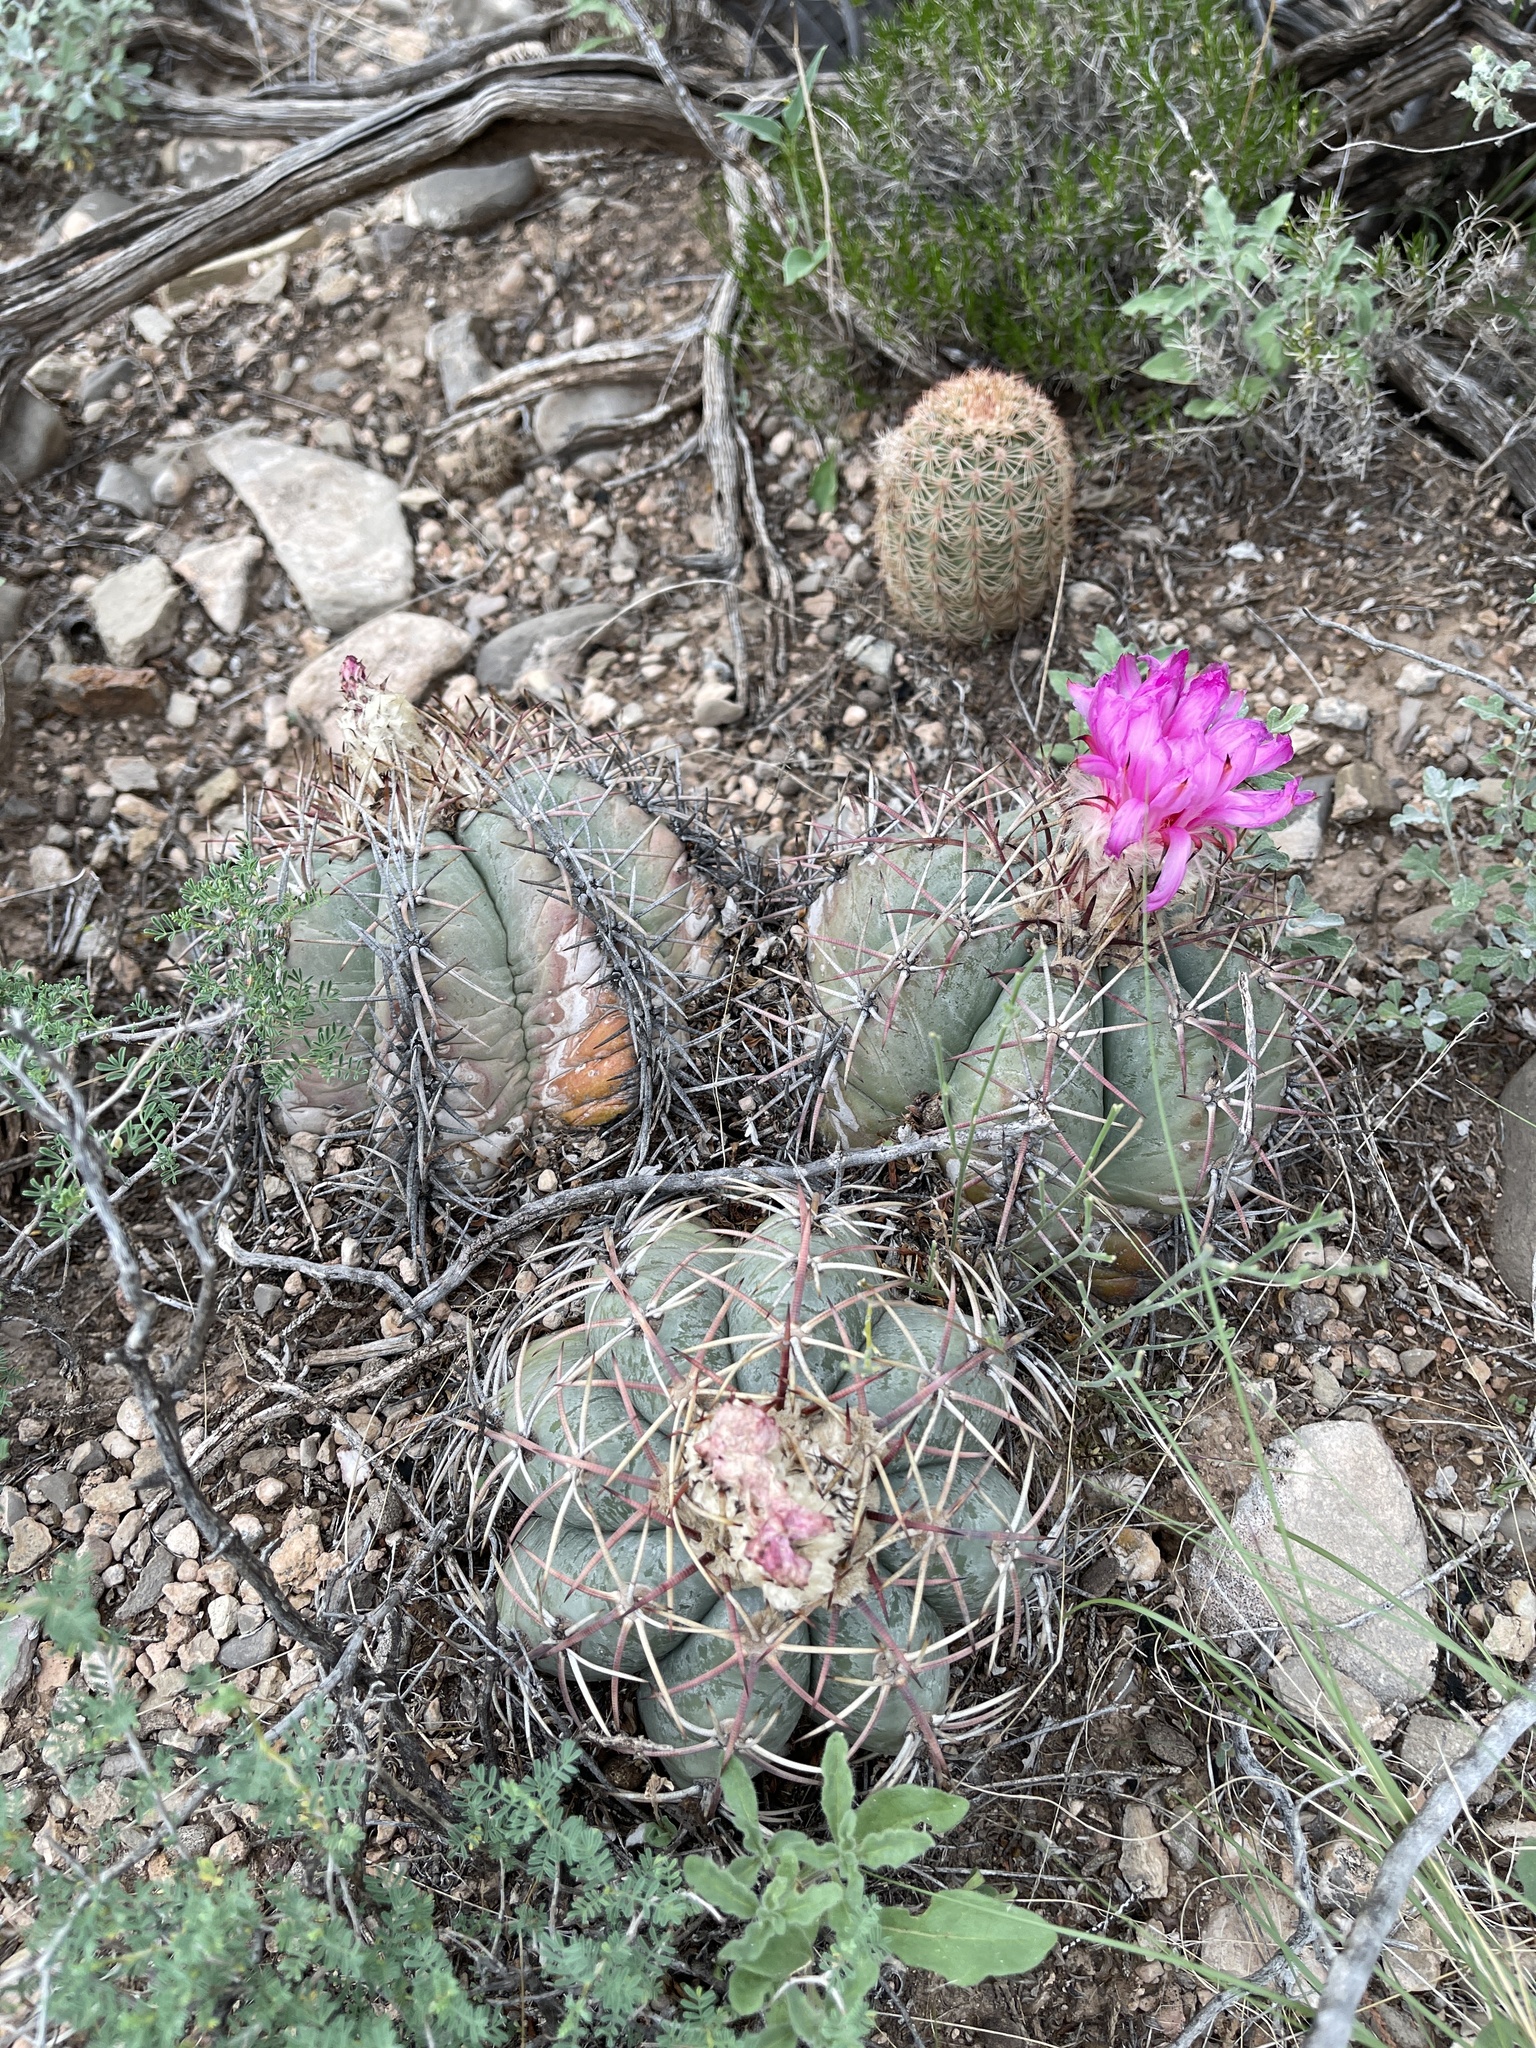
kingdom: Plantae
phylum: Tracheophyta
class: Magnoliopsida
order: Caryophyllales
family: Cactaceae
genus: Echinocactus
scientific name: Echinocactus horizonthalonius
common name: Devilshead
